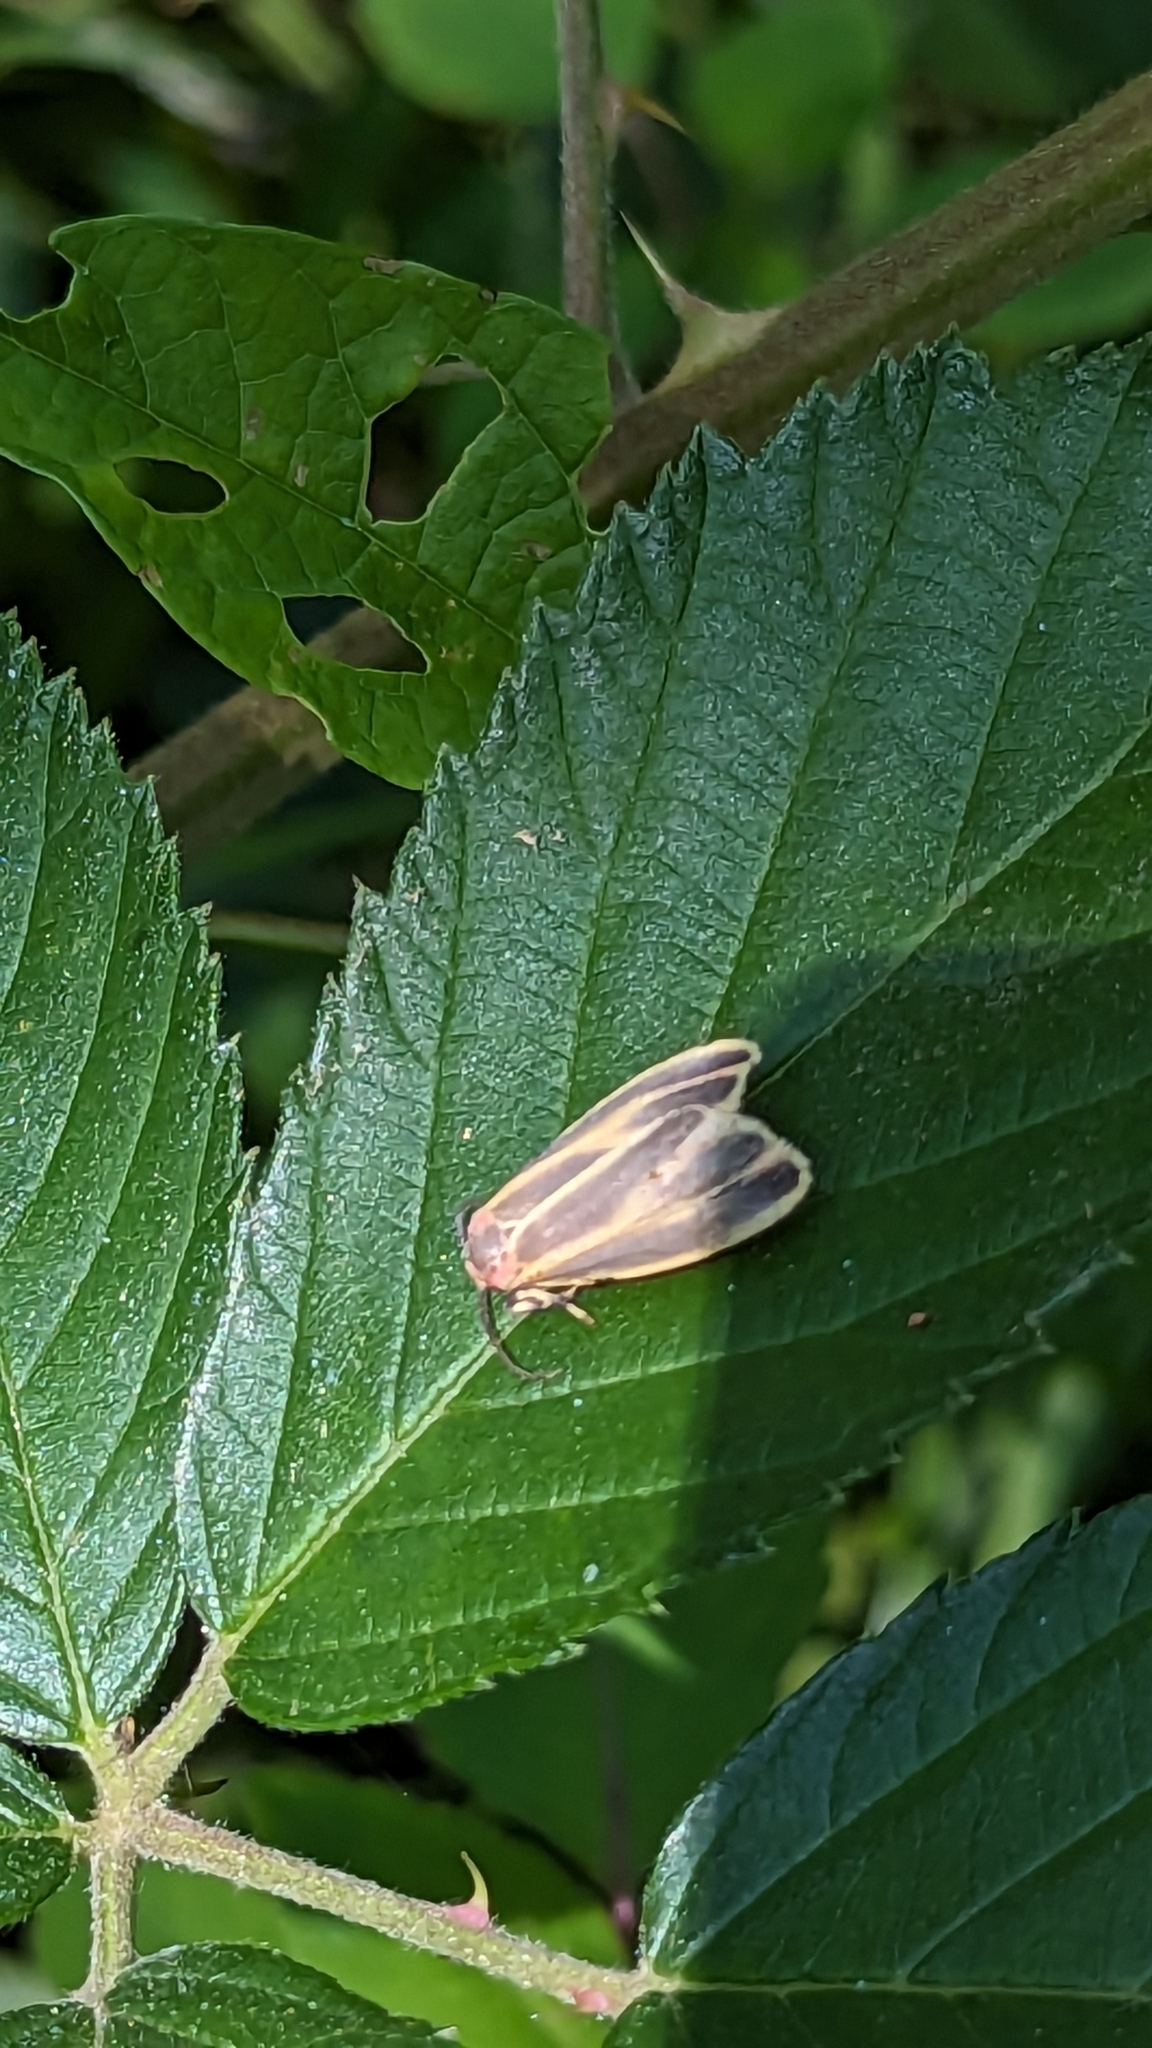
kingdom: Animalia
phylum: Arthropoda
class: Insecta
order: Lepidoptera
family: Erebidae
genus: Hypoprepia
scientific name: Hypoprepia fucosa
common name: Painted lichen moth
